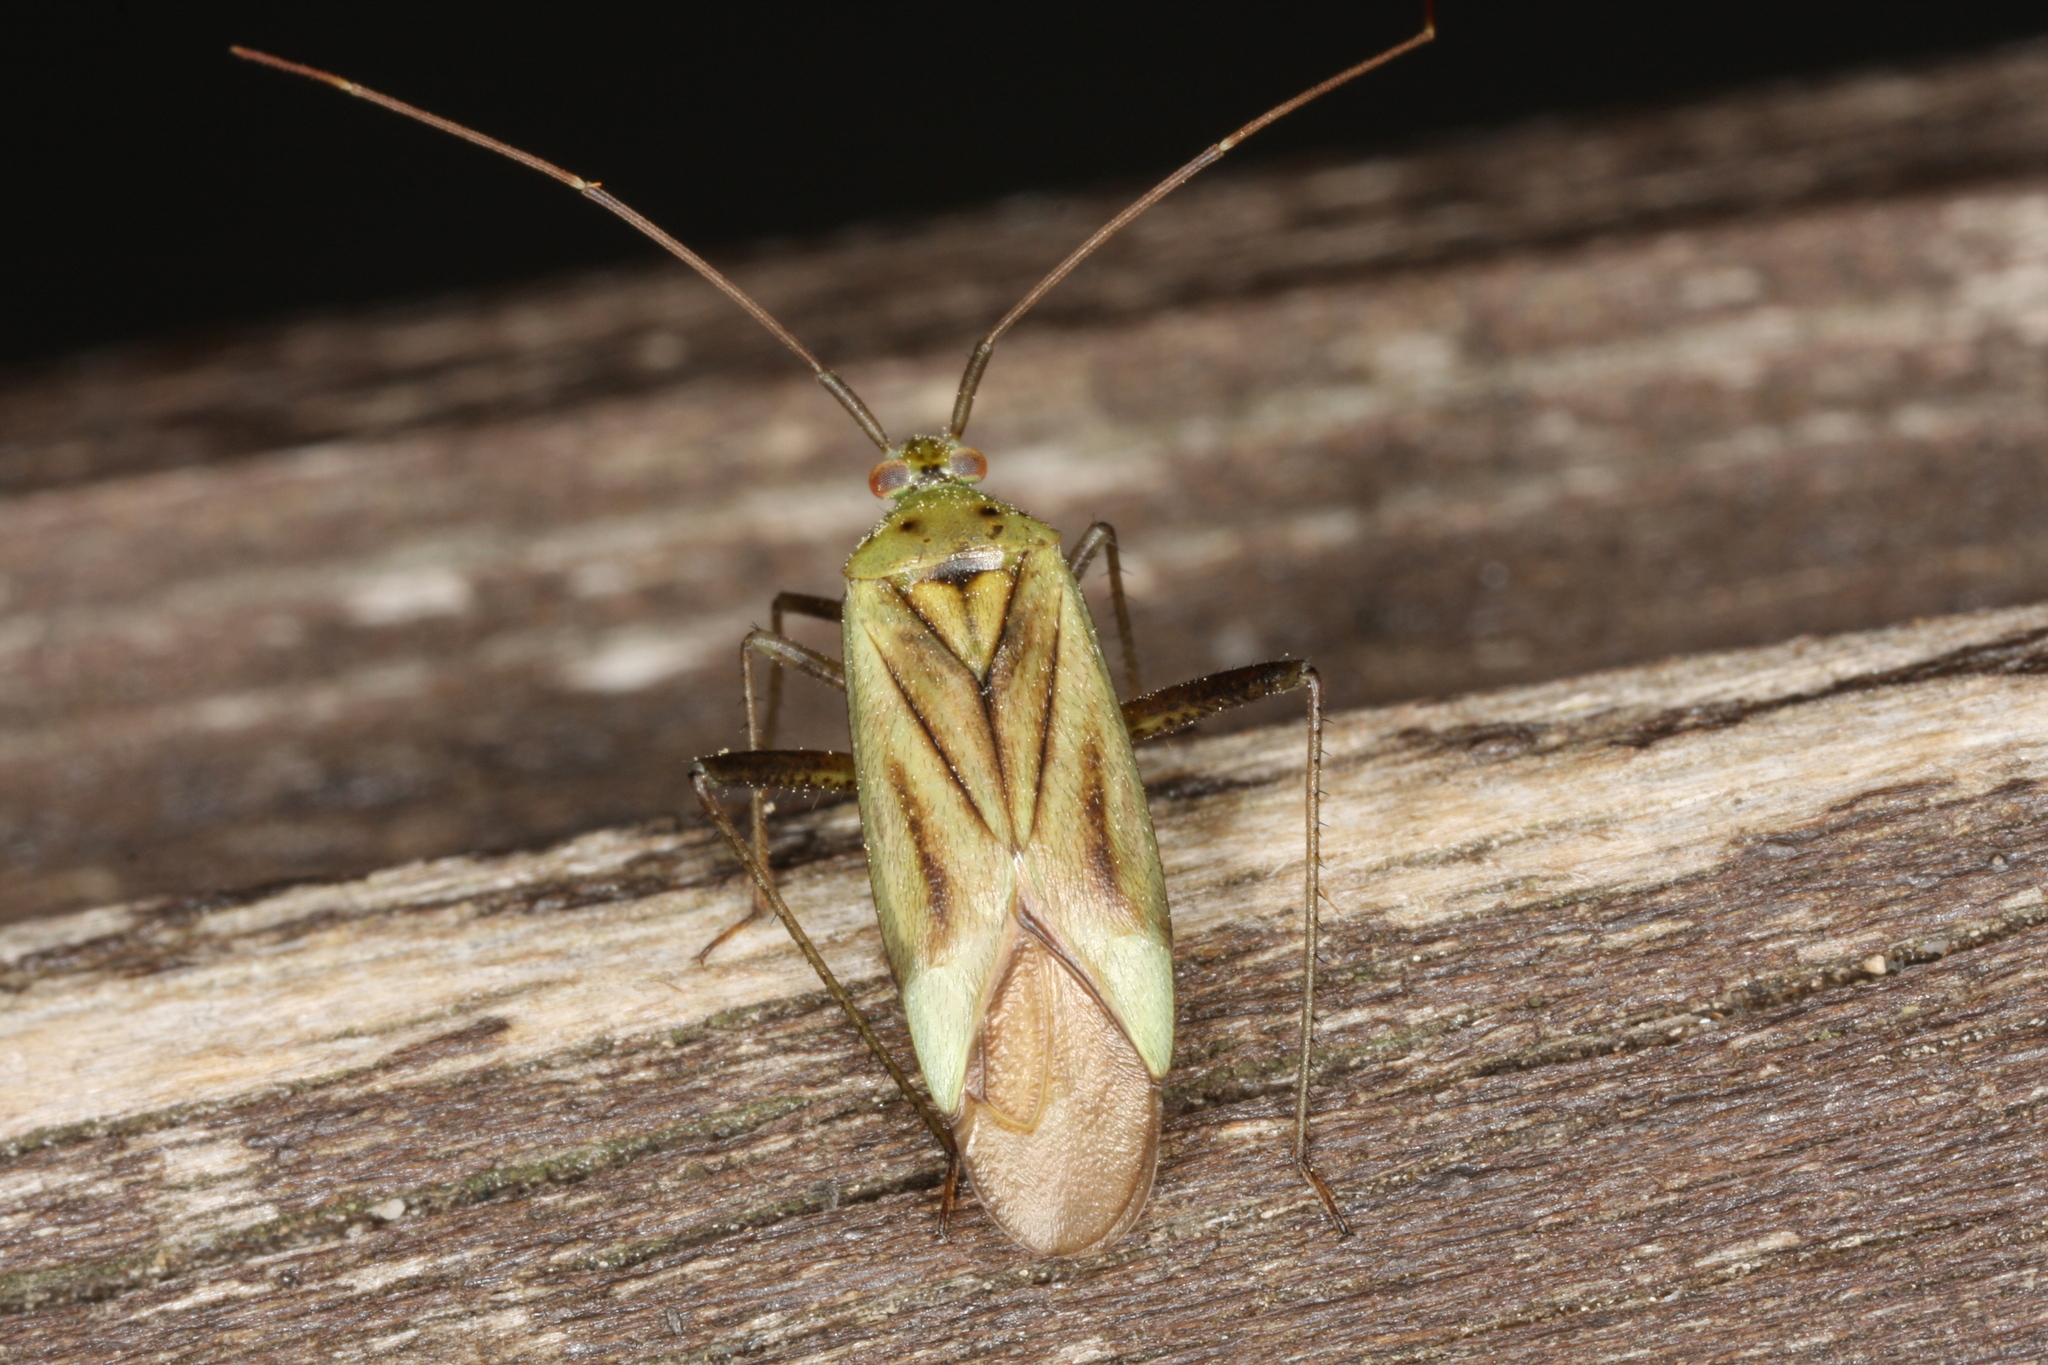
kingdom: Animalia
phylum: Arthropoda
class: Insecta
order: Hemiptera
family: Miridae
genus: Adelphocoris
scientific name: Adelphocoris quadripunctatus
